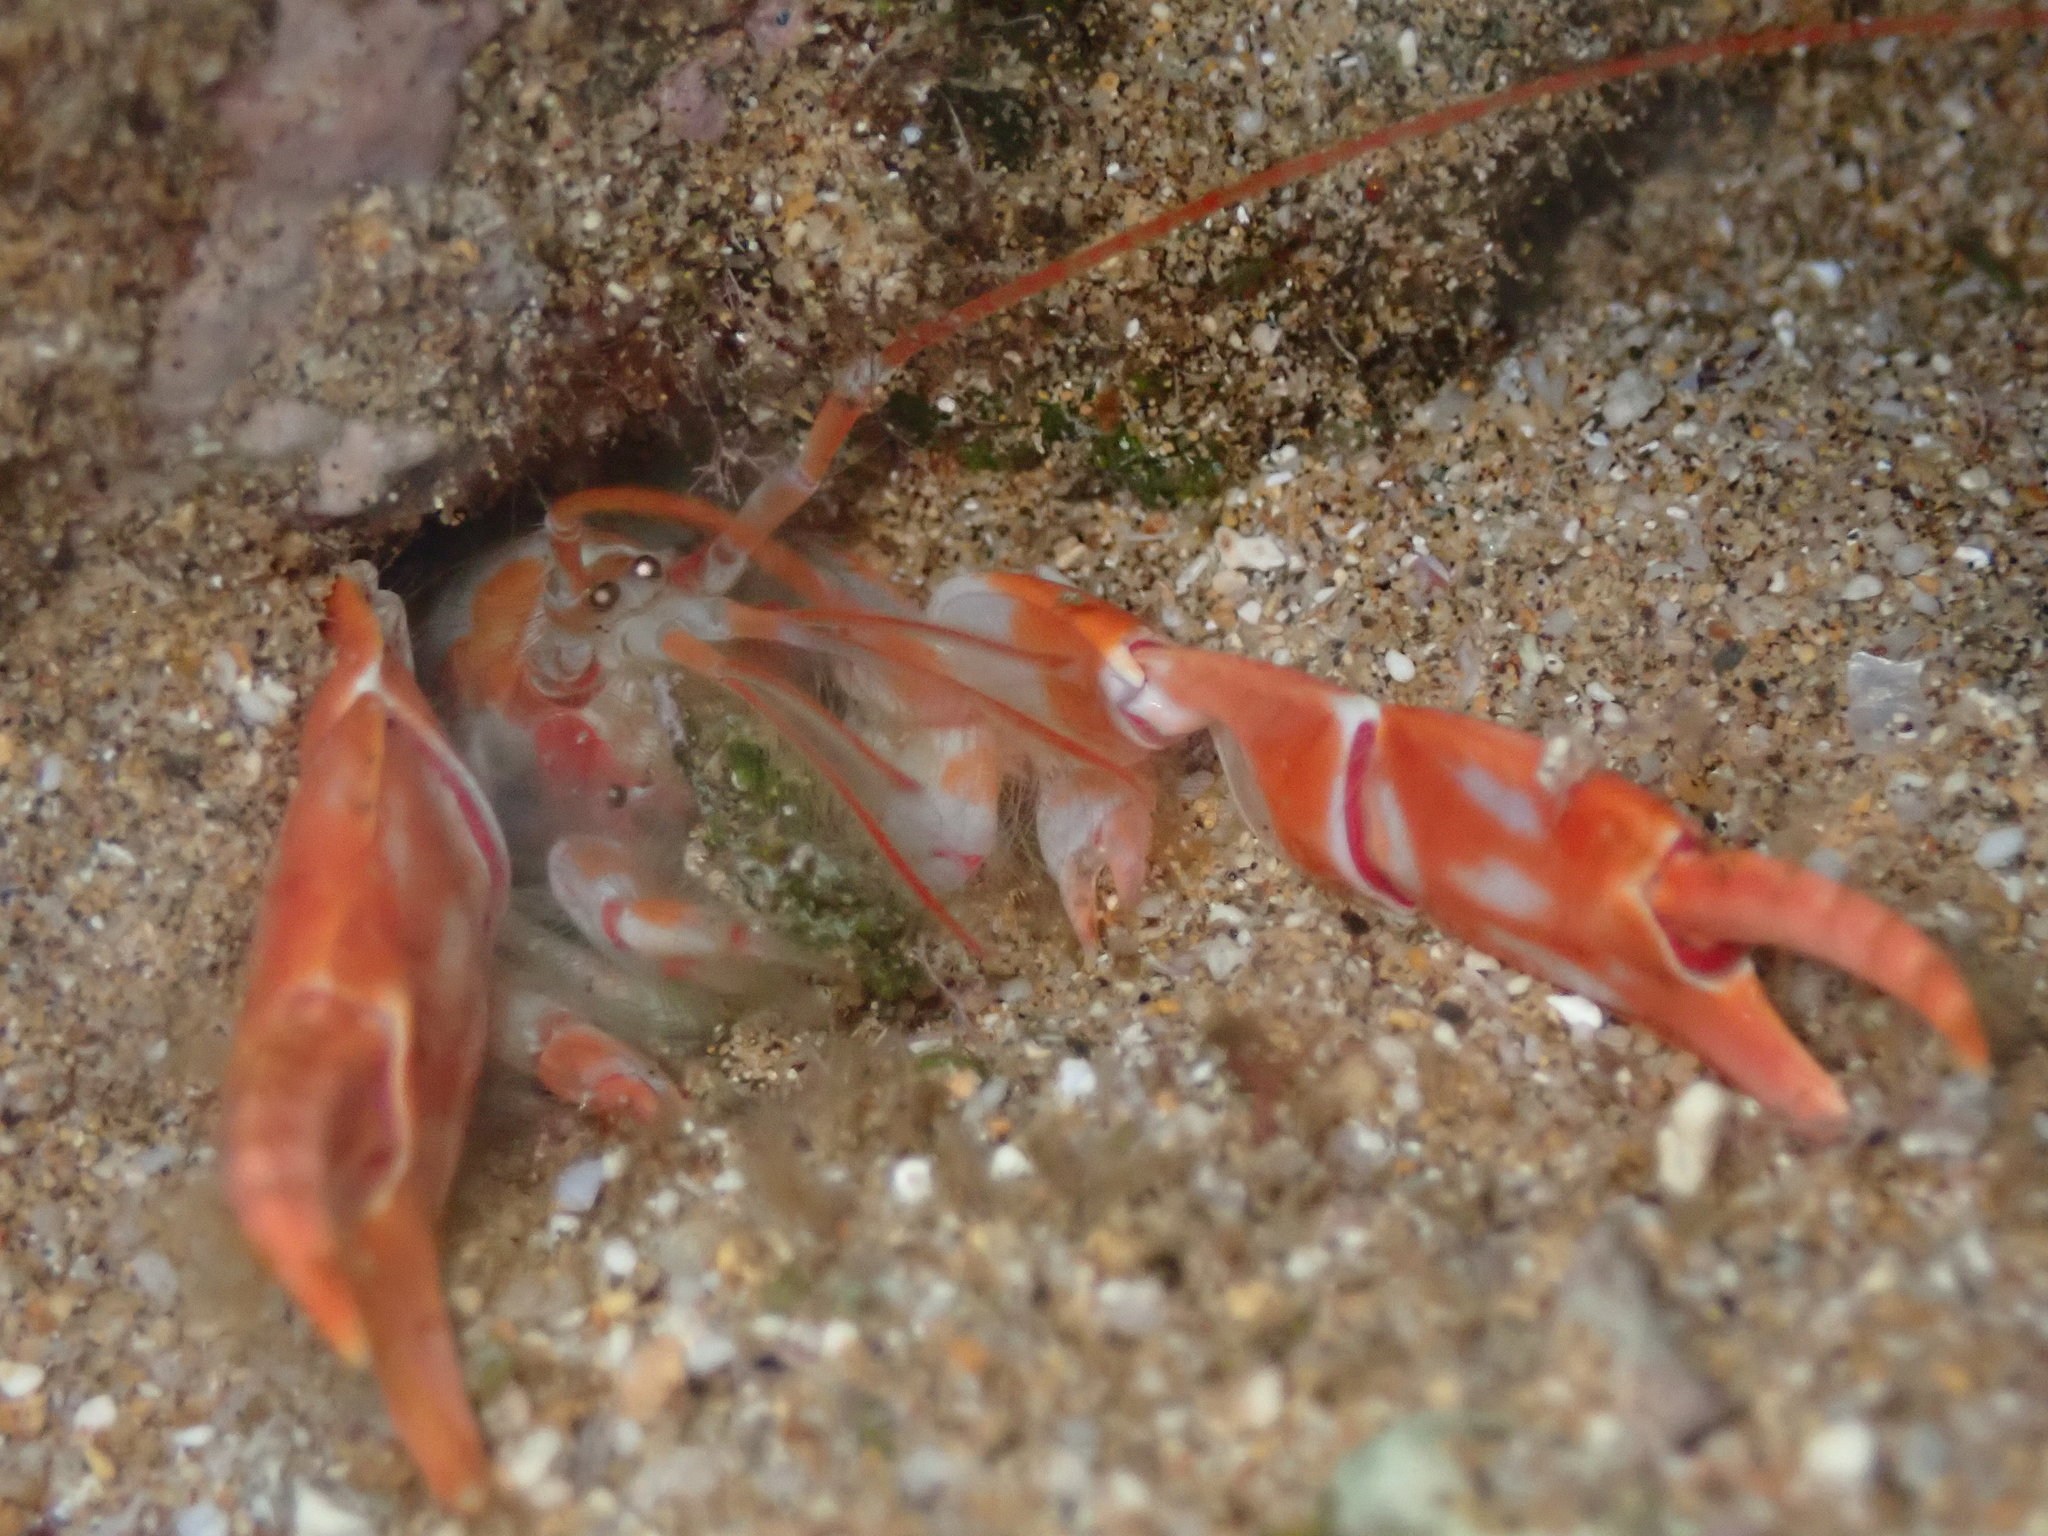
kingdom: Animalia
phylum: Arthropoda
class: Malacostraca
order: Decapoda
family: Callichiridae
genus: Corallianassa
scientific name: Corallianassa borradailei
